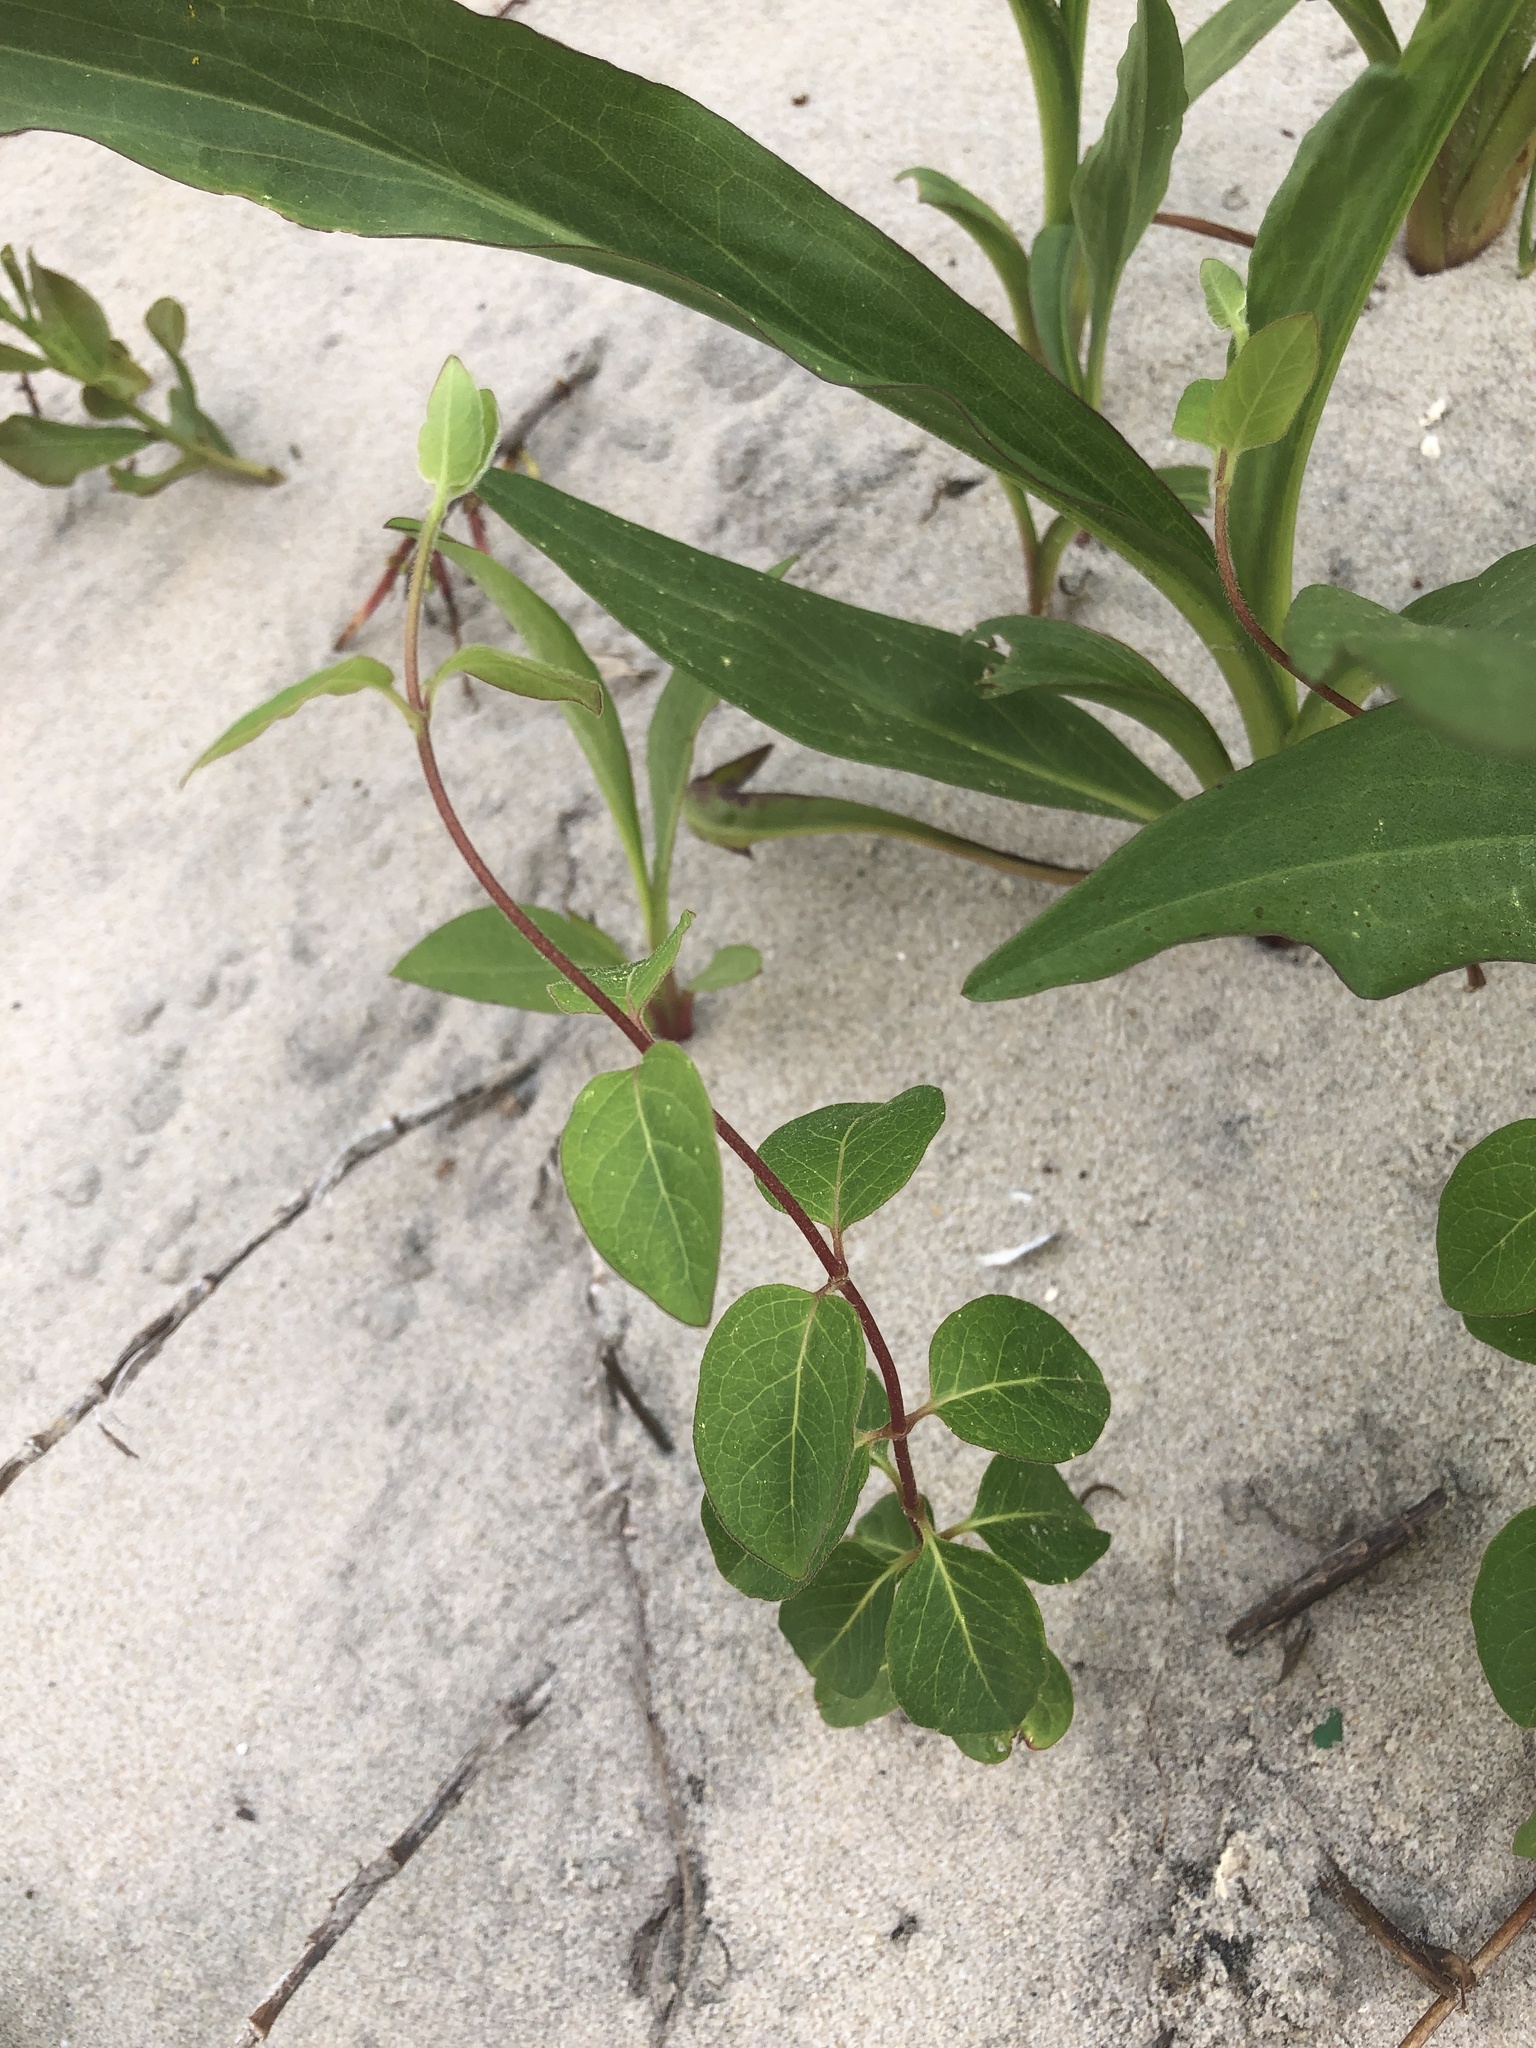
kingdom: Plantae
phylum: Tracheophyta
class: Magnoliopsida
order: Dipsacales
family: Caprifoliaceae
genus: Lonicera
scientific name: Lonicera japonica
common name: Japanese honeysuckle
